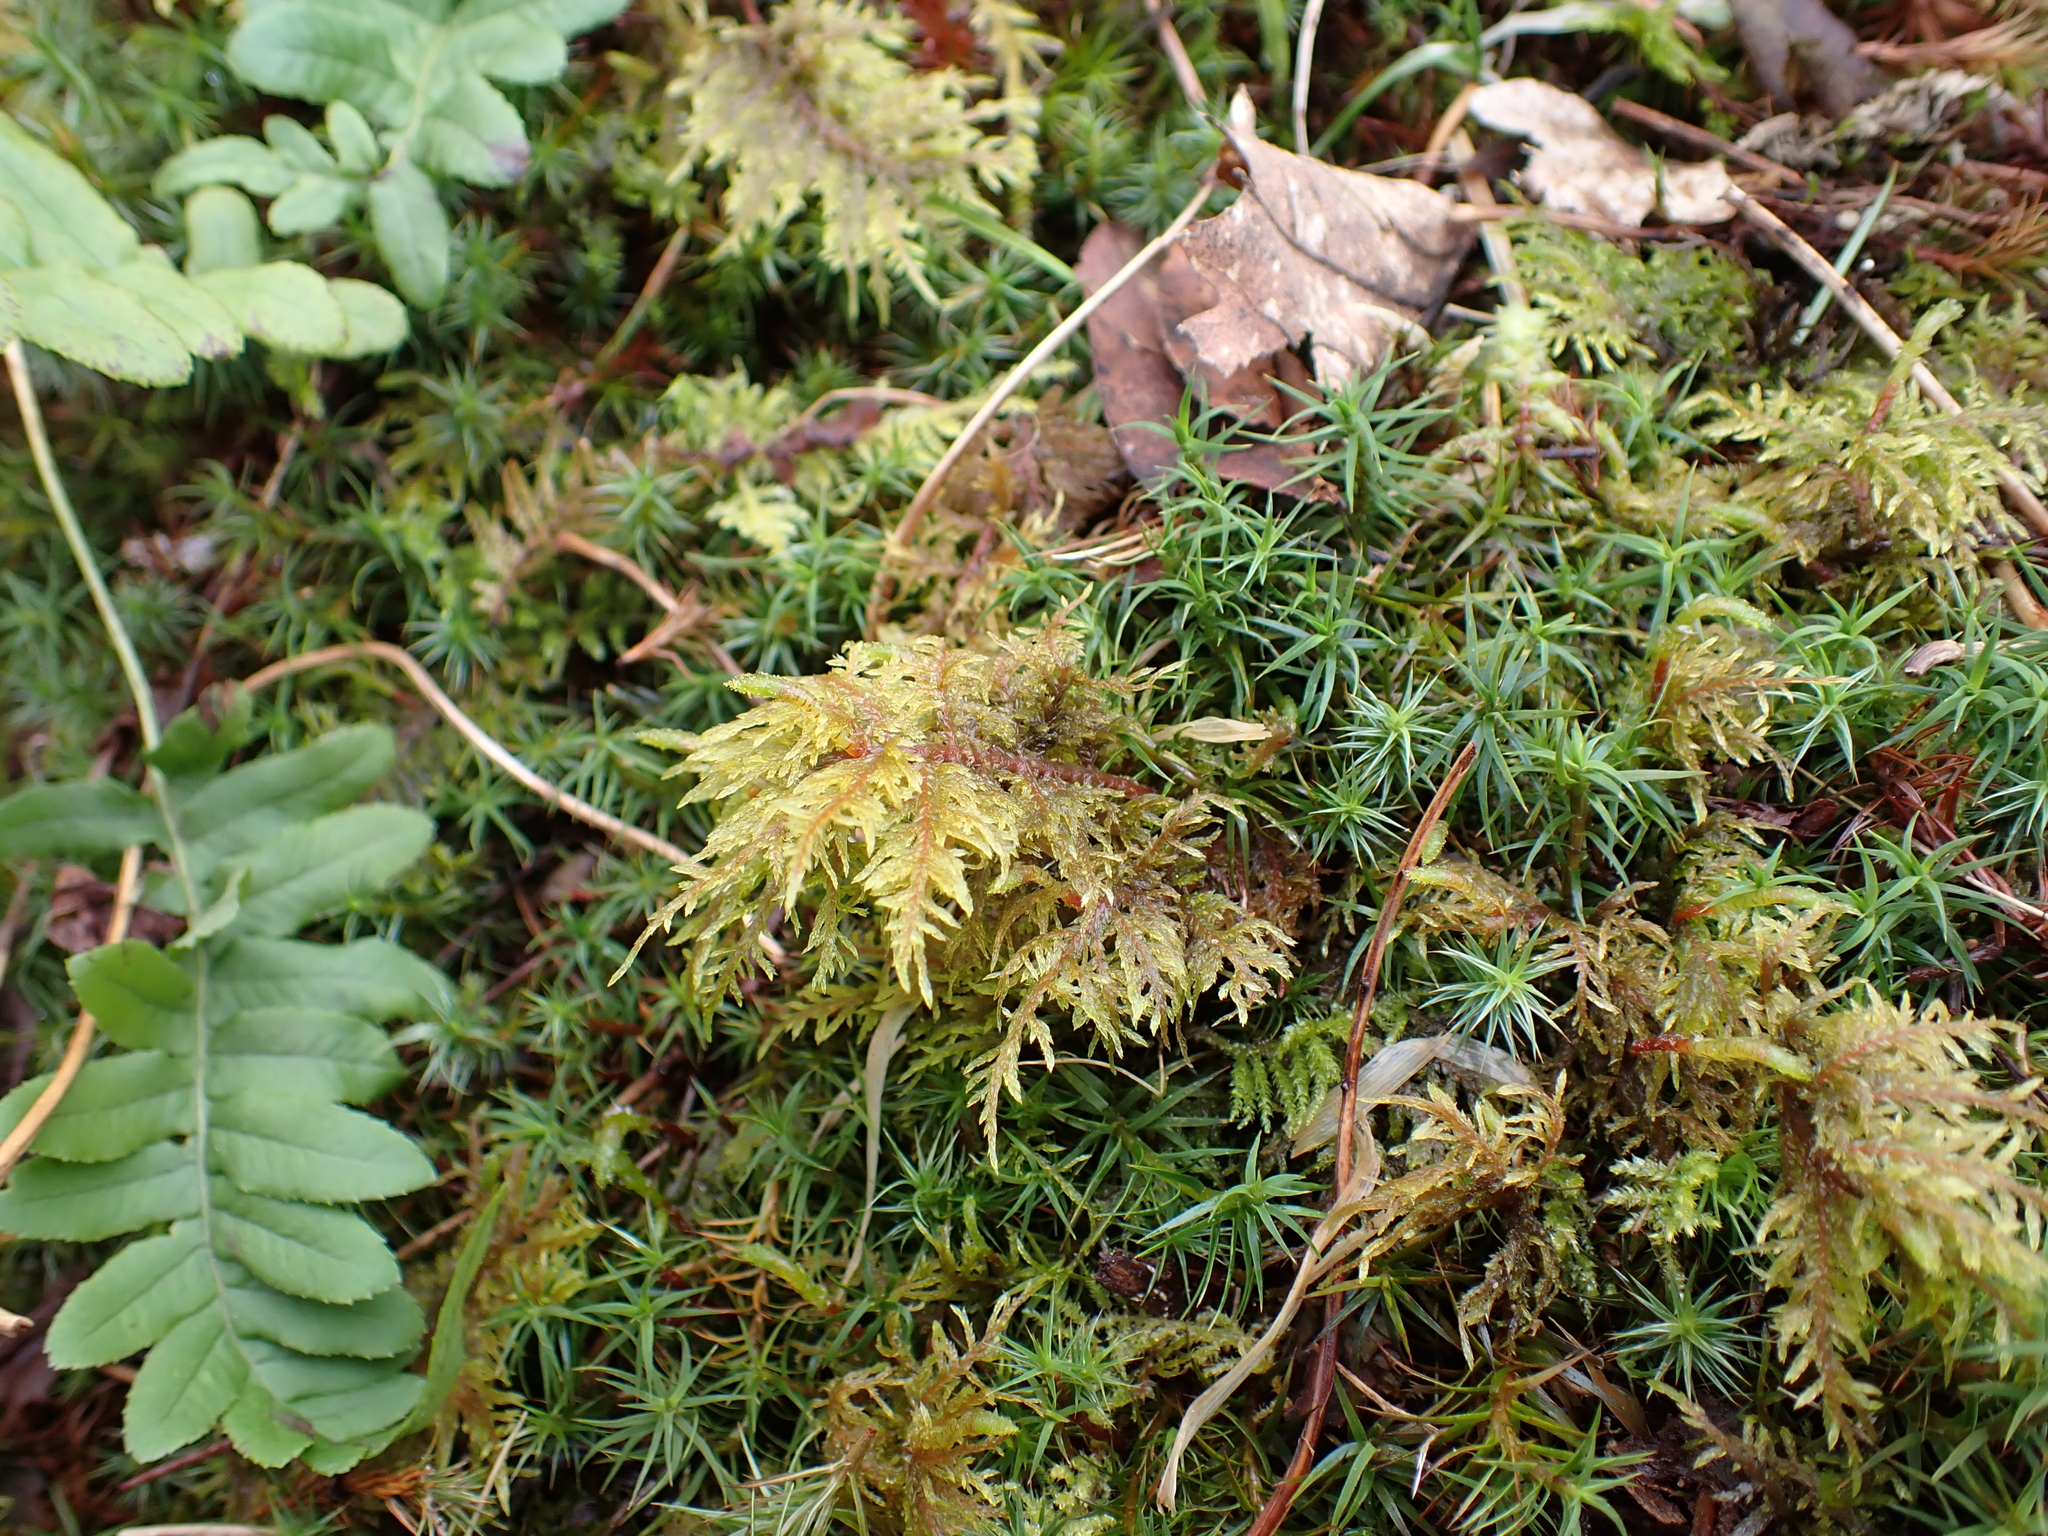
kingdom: Plantae
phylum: Bryophyta
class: Bryopsida
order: Hypnales
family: Hylocomiaceae
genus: Hylocomium
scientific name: Hylocomium splendens
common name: Stairstep moss
